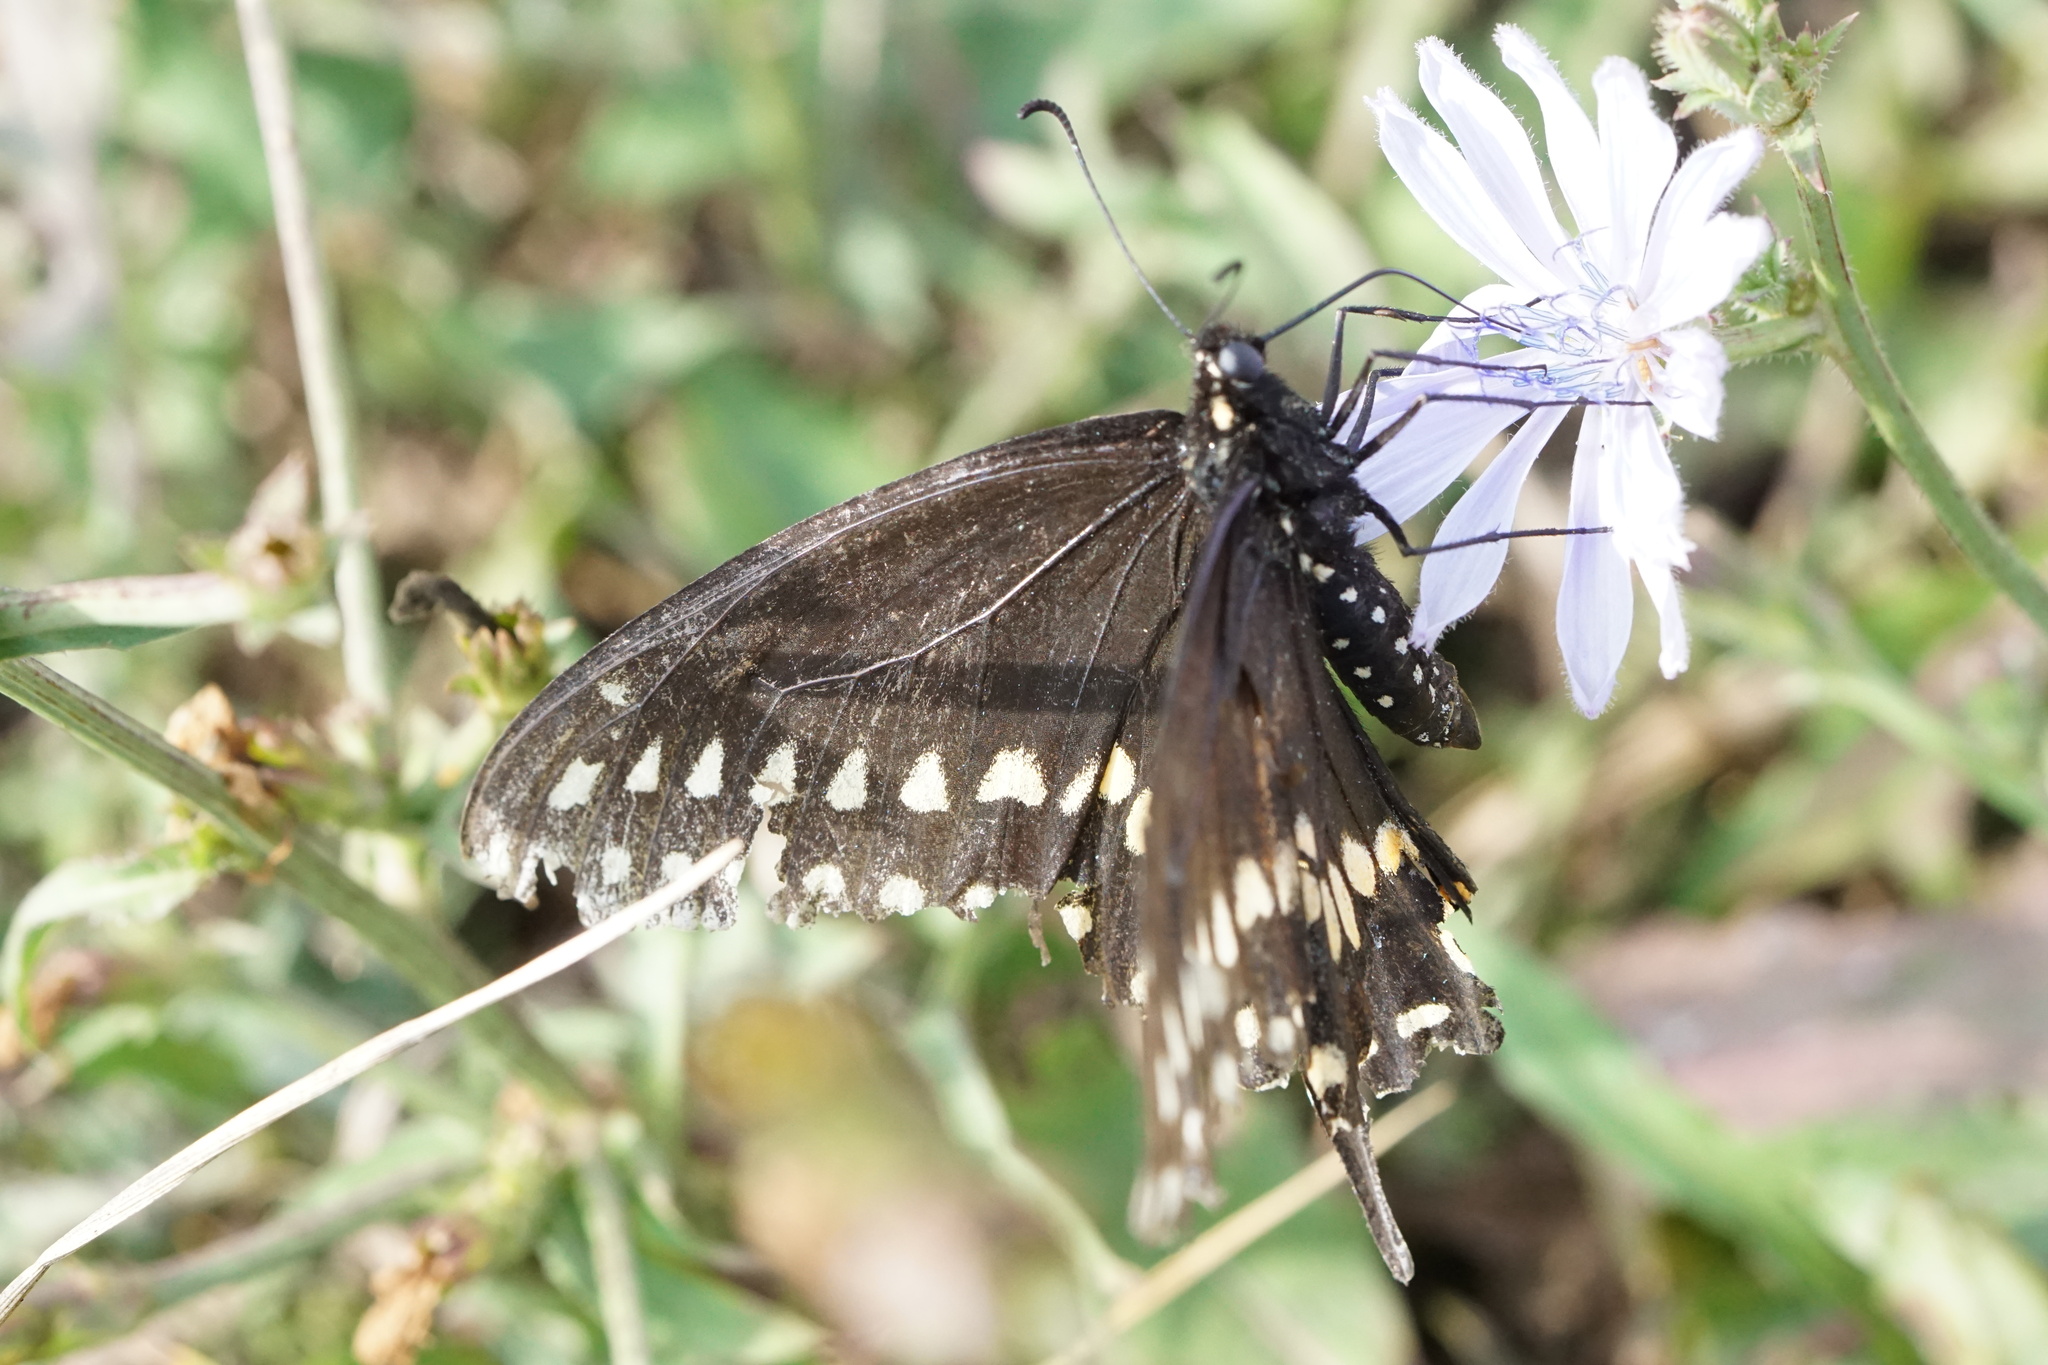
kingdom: Animalia
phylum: Arthropoda
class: Insecta
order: Lepidoptera
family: Papilionidae
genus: Papilio
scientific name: Papilio polyxenes
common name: Black swallowtail
